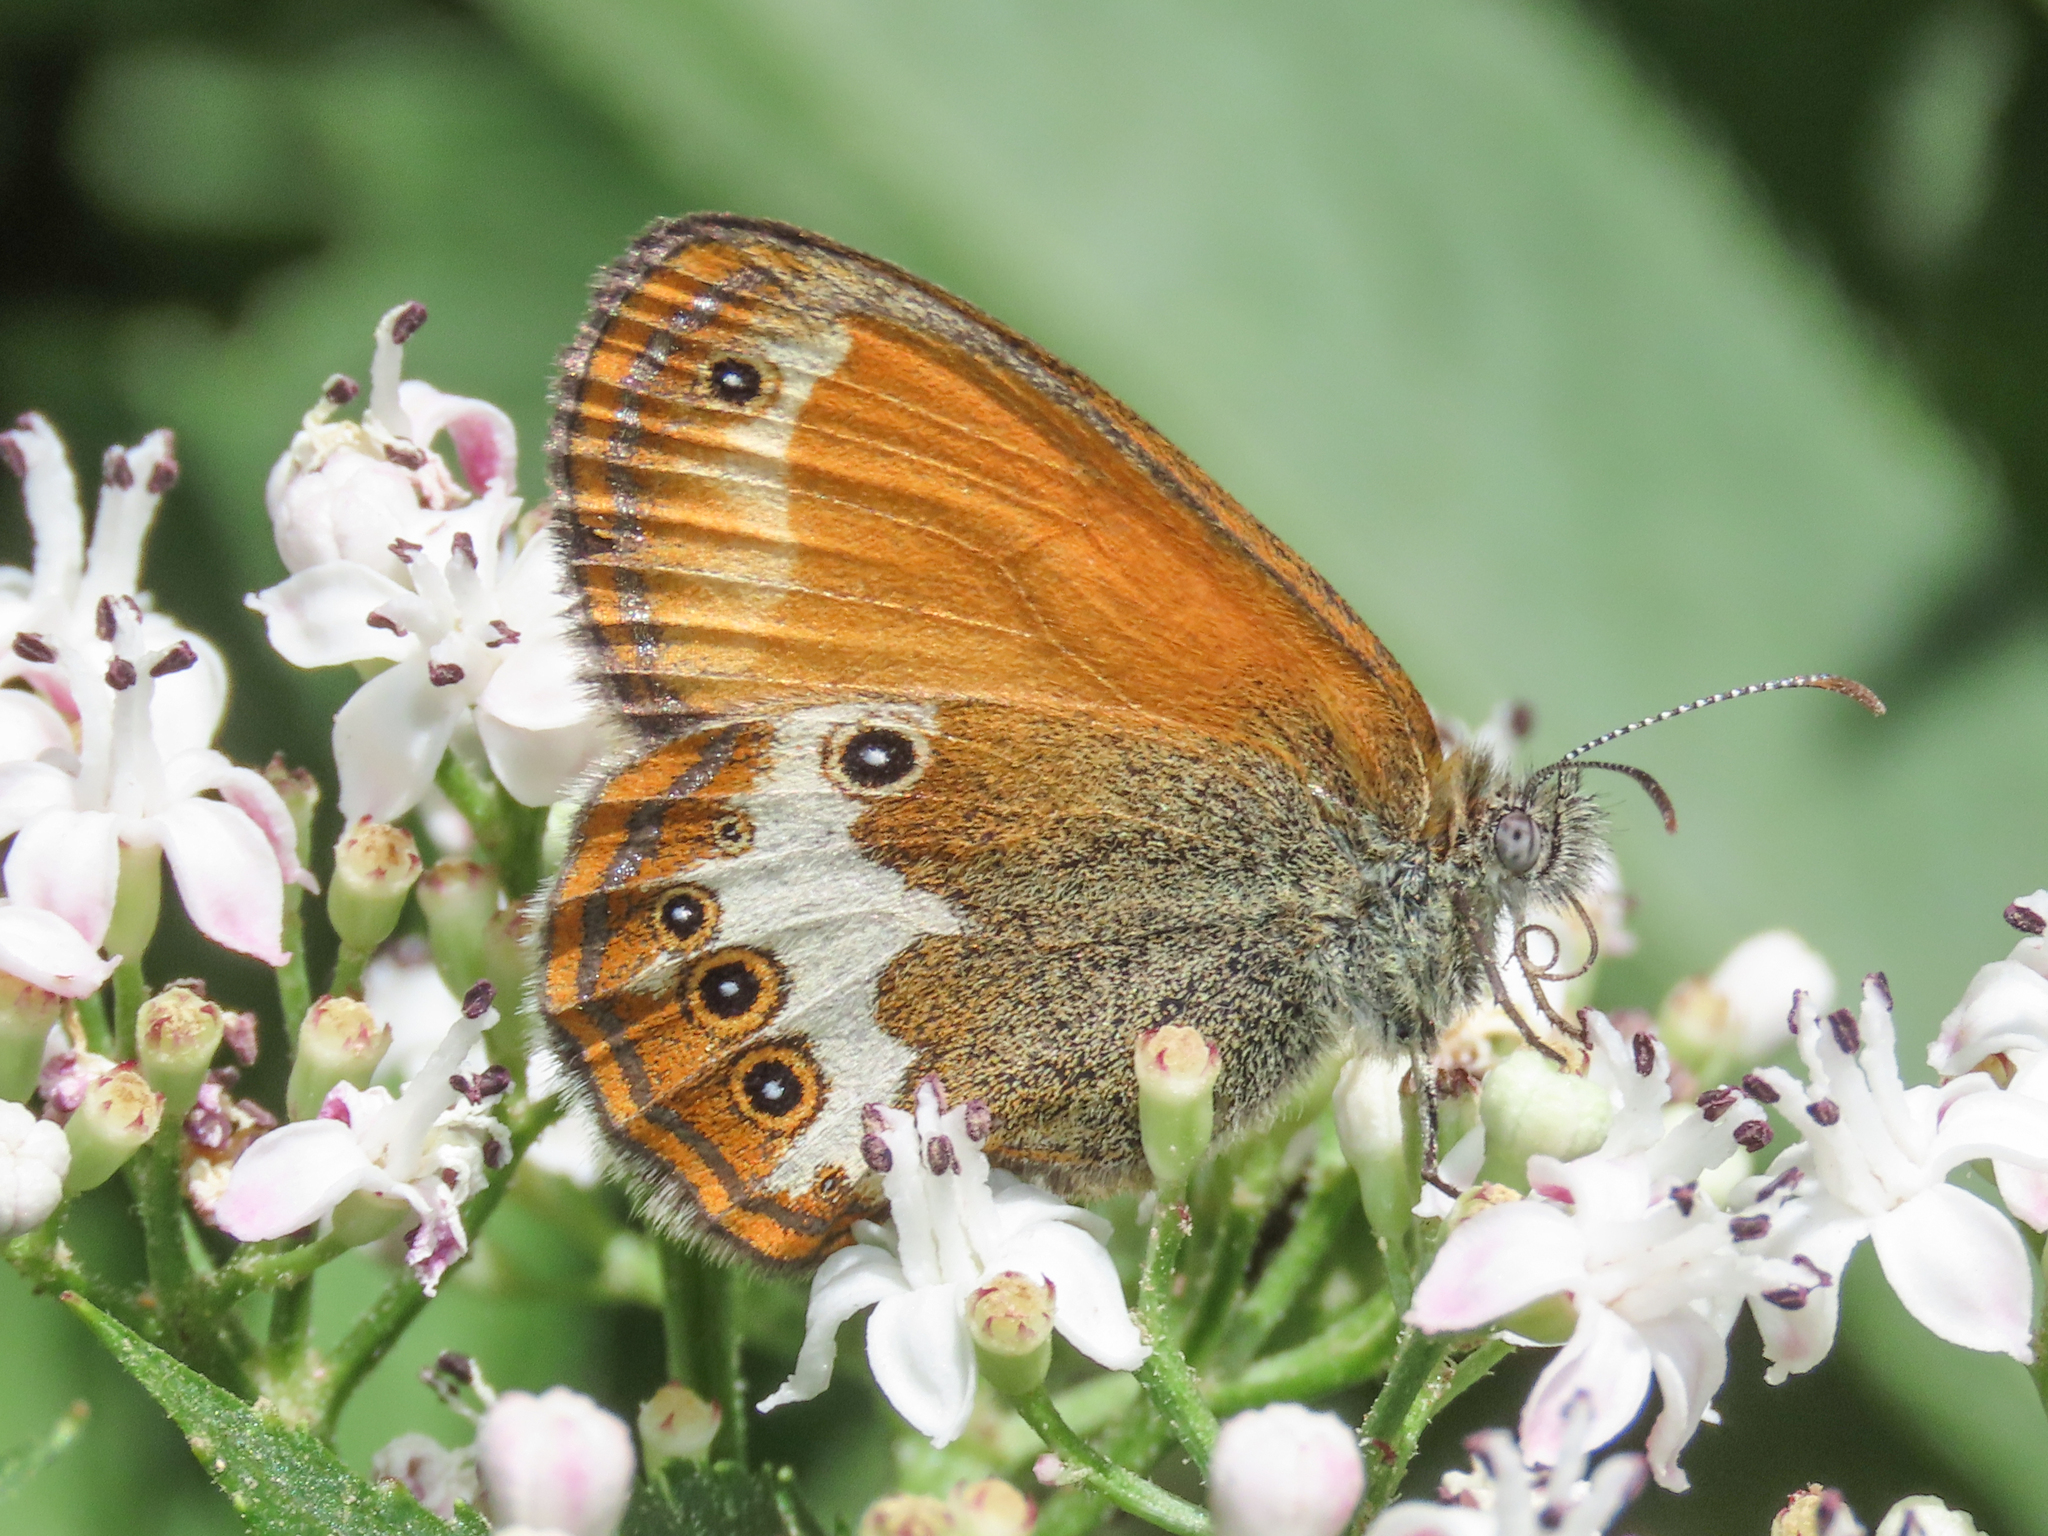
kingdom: Animalia
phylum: Arthropoda
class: Insecta
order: Lepidoptera
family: Nymphalidae
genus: Coenonympha
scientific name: Coenonympha arcania
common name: Pearly heath
